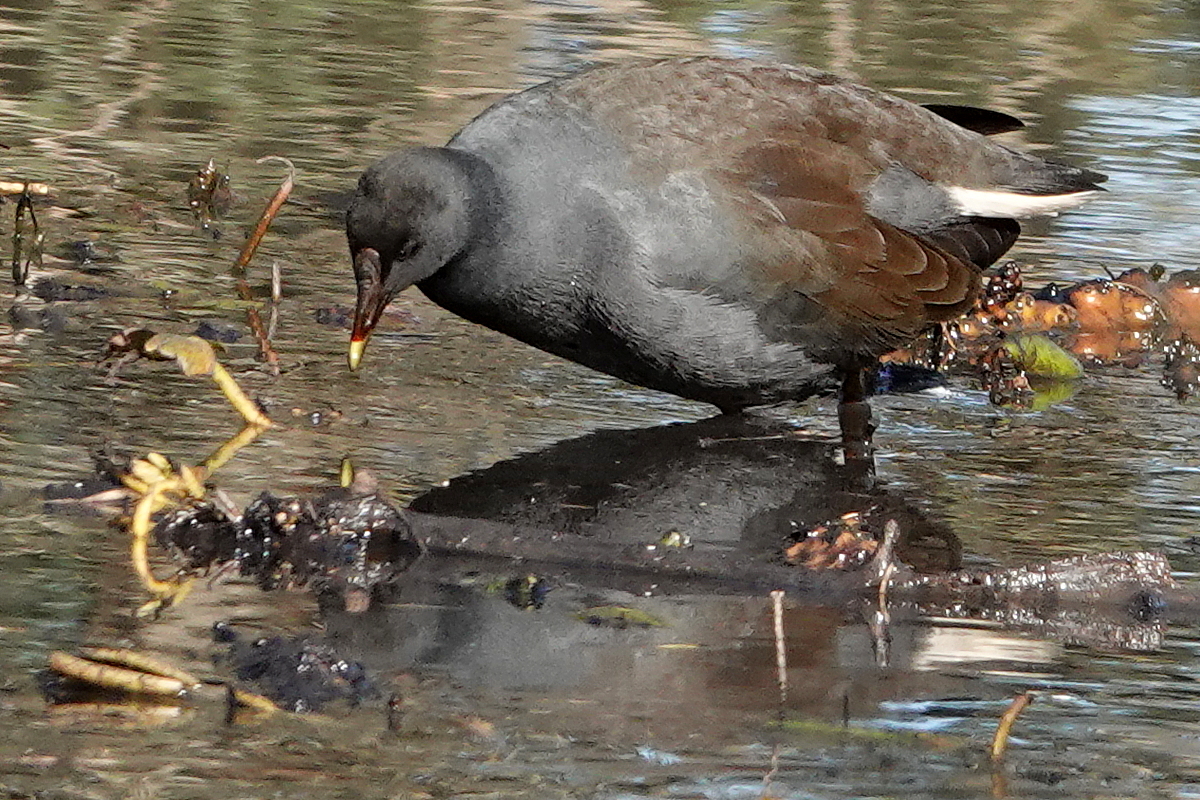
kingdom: Animalia
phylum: Chordata
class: Aves
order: Gruiformes
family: Rallidae
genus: Gallinula
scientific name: Gallinula tenebrosa
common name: Dusky moorhen
